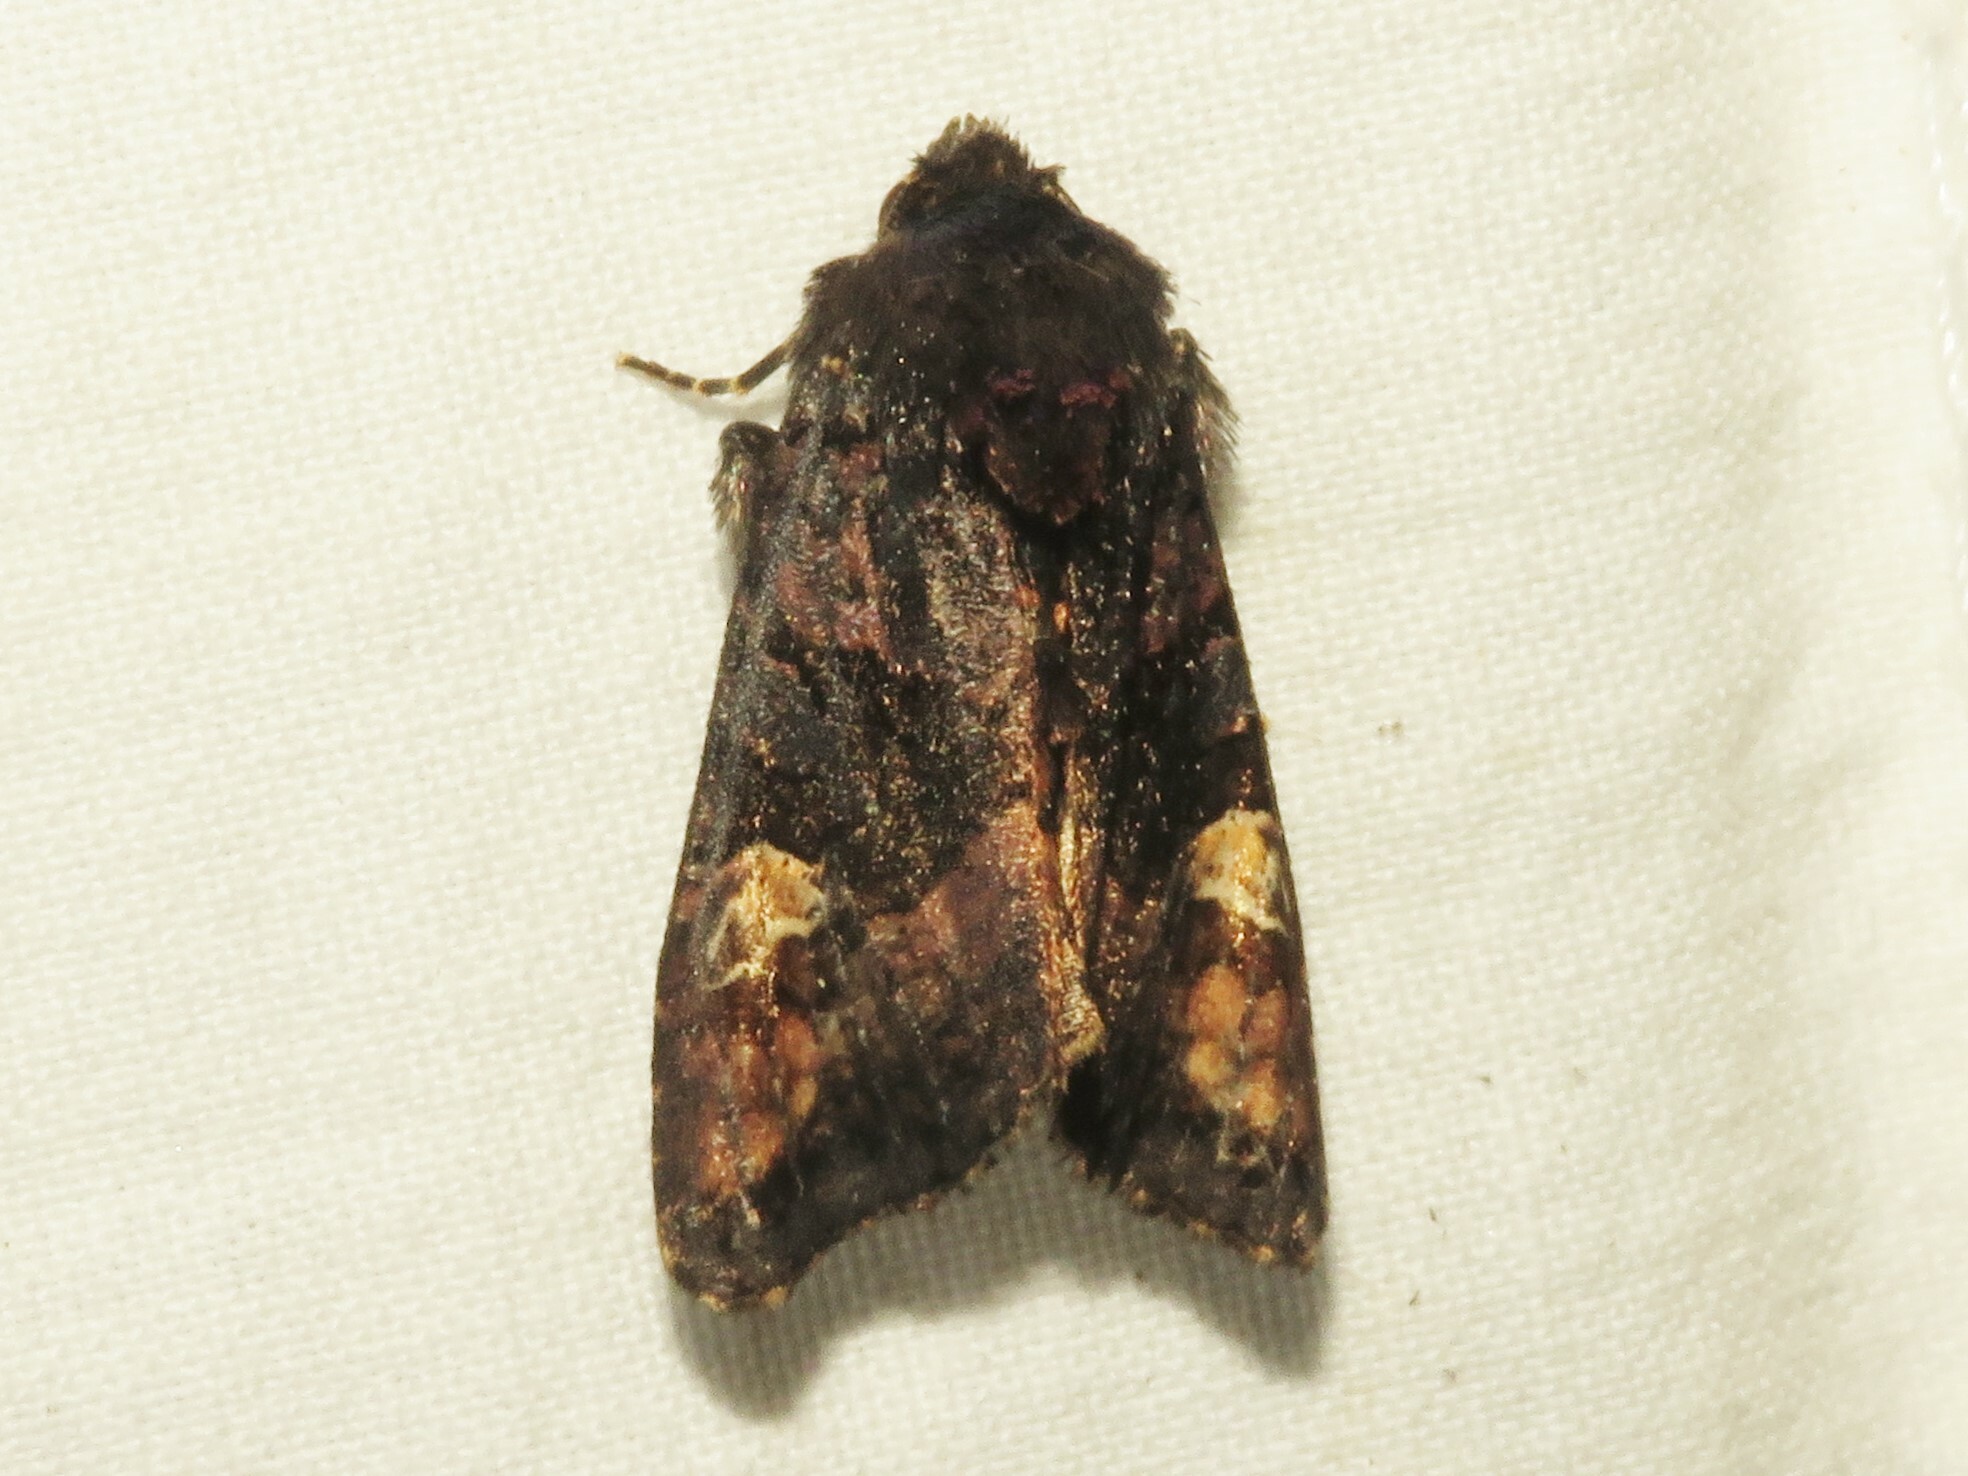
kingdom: Animalia
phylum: Arthropoda
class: Insecta
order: Lepidoptera
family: Noctuidae
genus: Euplexia
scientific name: Euplexia benesimilis
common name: American angle shades
